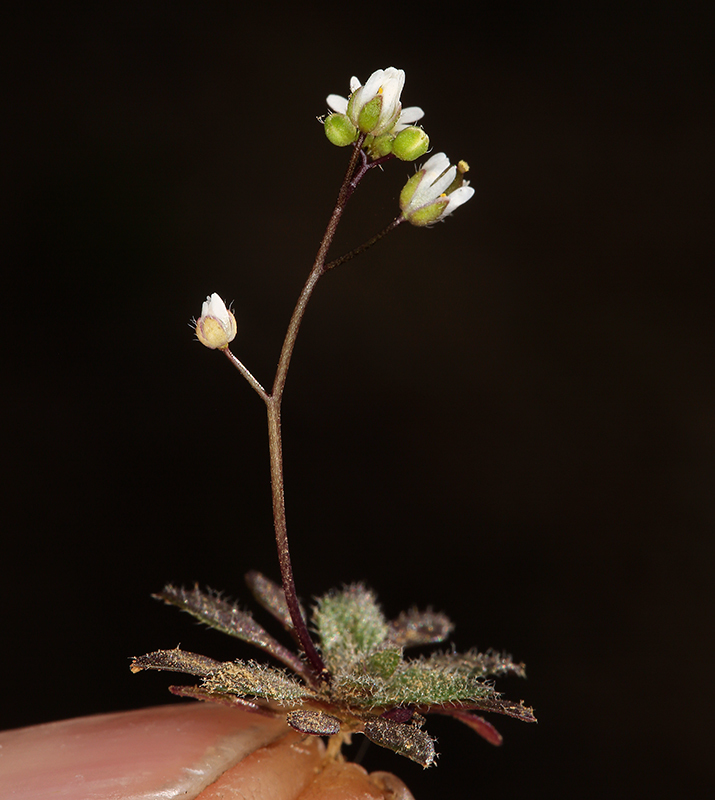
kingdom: Plantae
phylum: Tracheophyta
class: Magnoliopsida
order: Brassicales
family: Brassicaceae
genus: Draba
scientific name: Draba verna
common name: Spring draba
